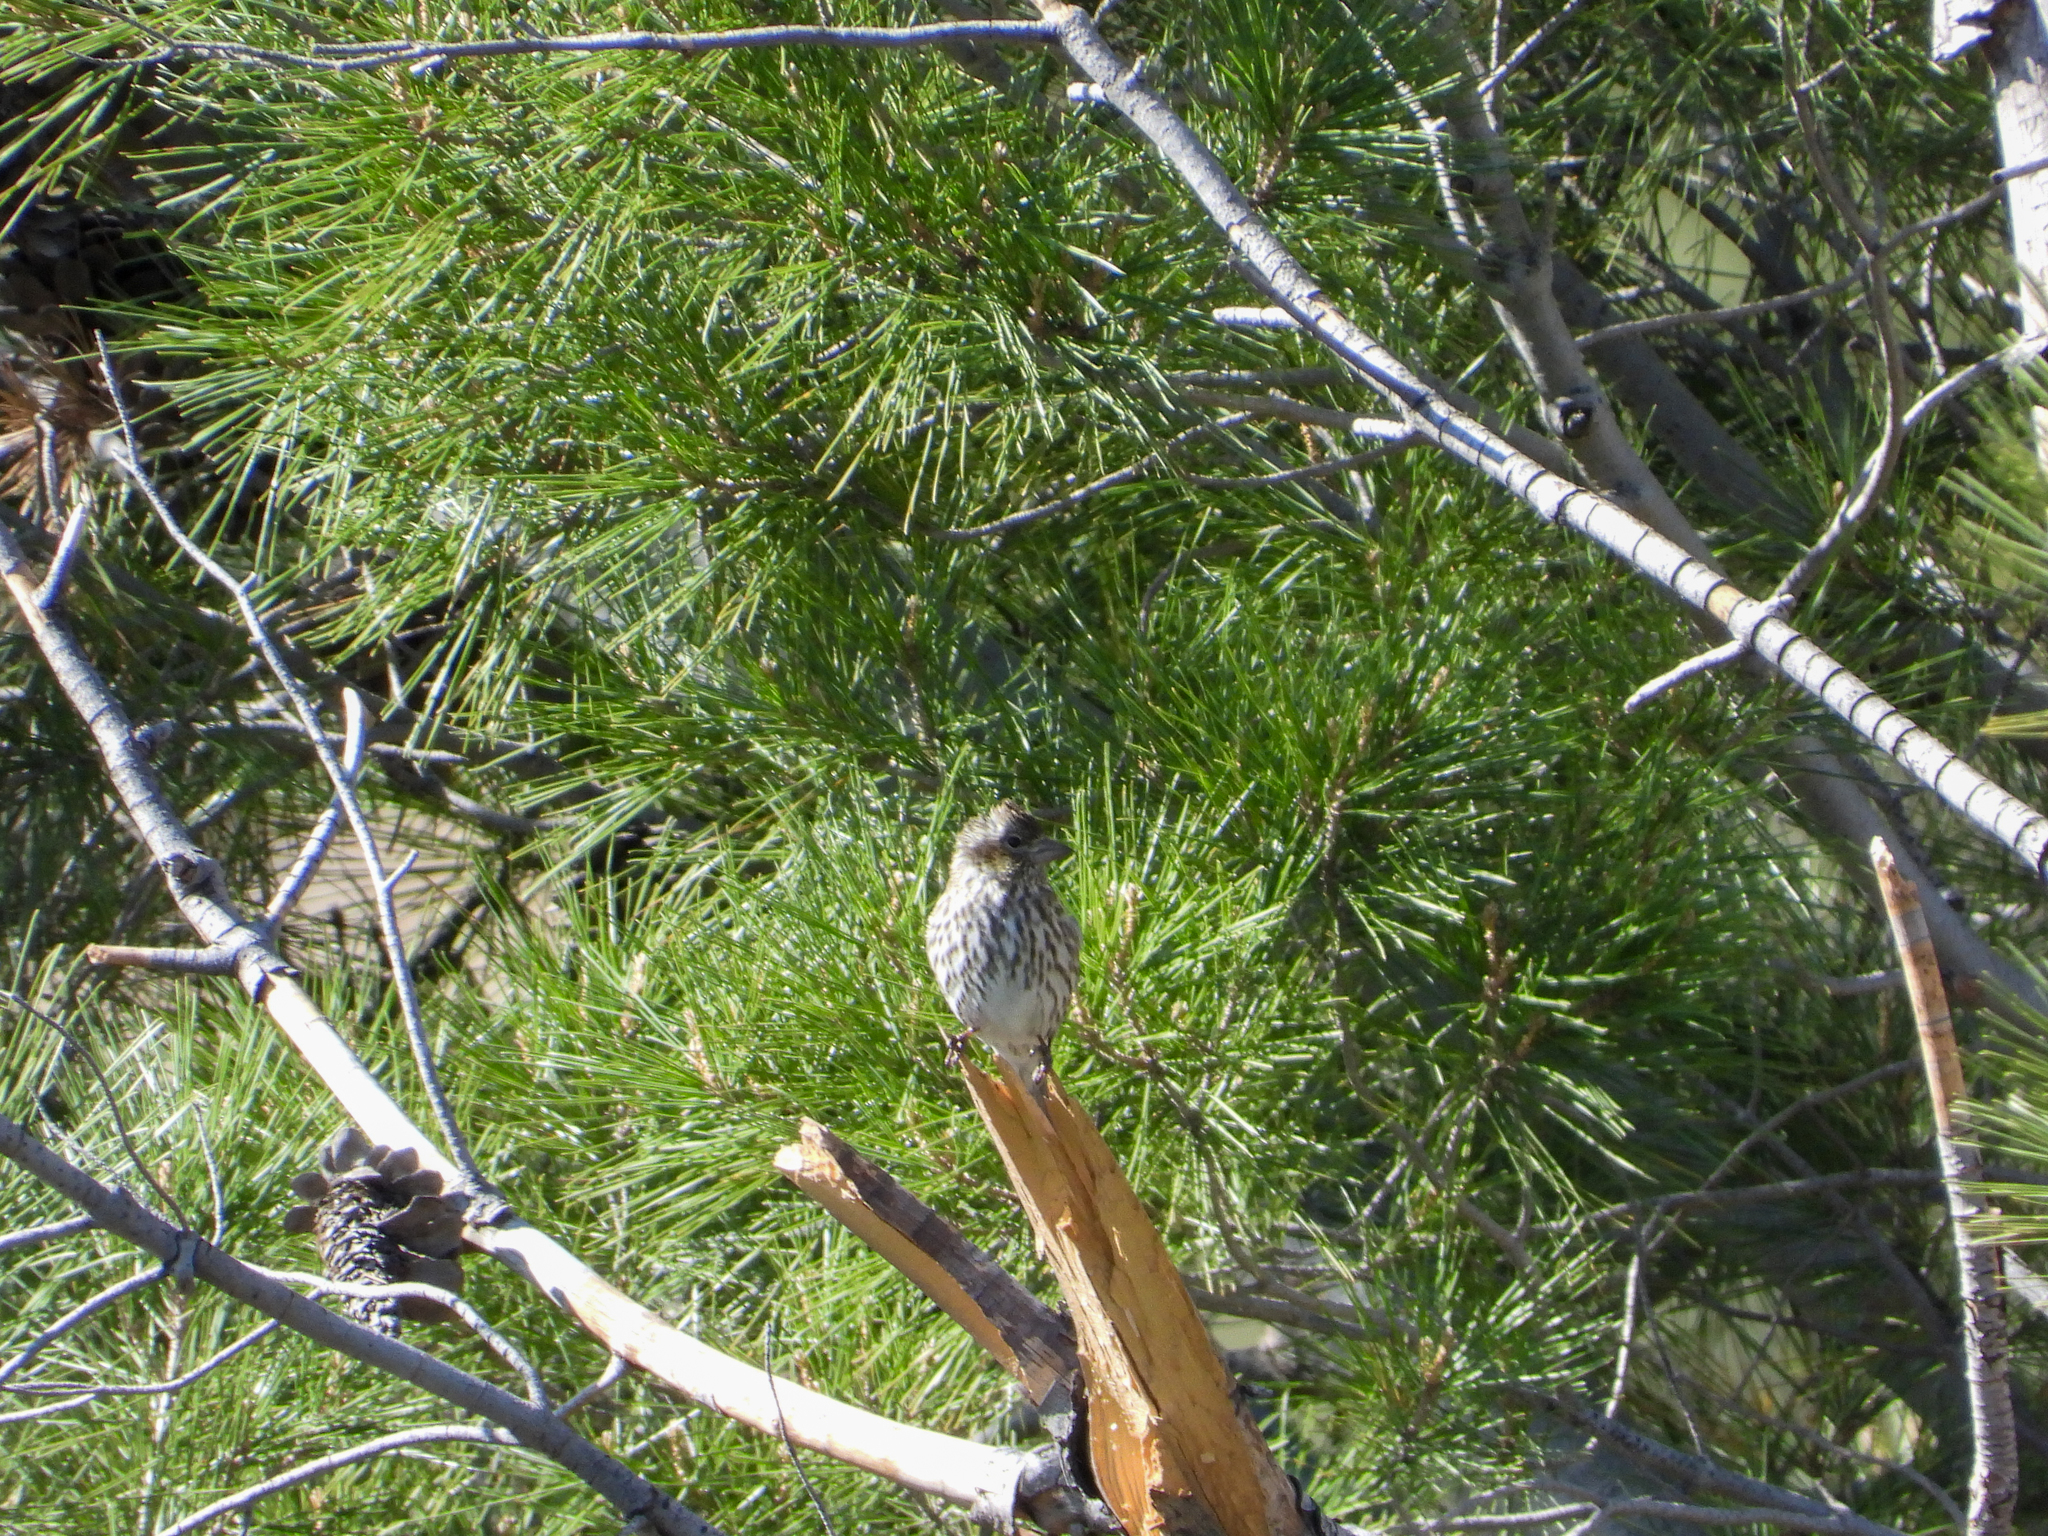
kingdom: Animalia
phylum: Chordata
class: Aves
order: Passeriformes
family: Fringillidae
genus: Haemorhous
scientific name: Haemorhous cassinii
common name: Cassin's finch
